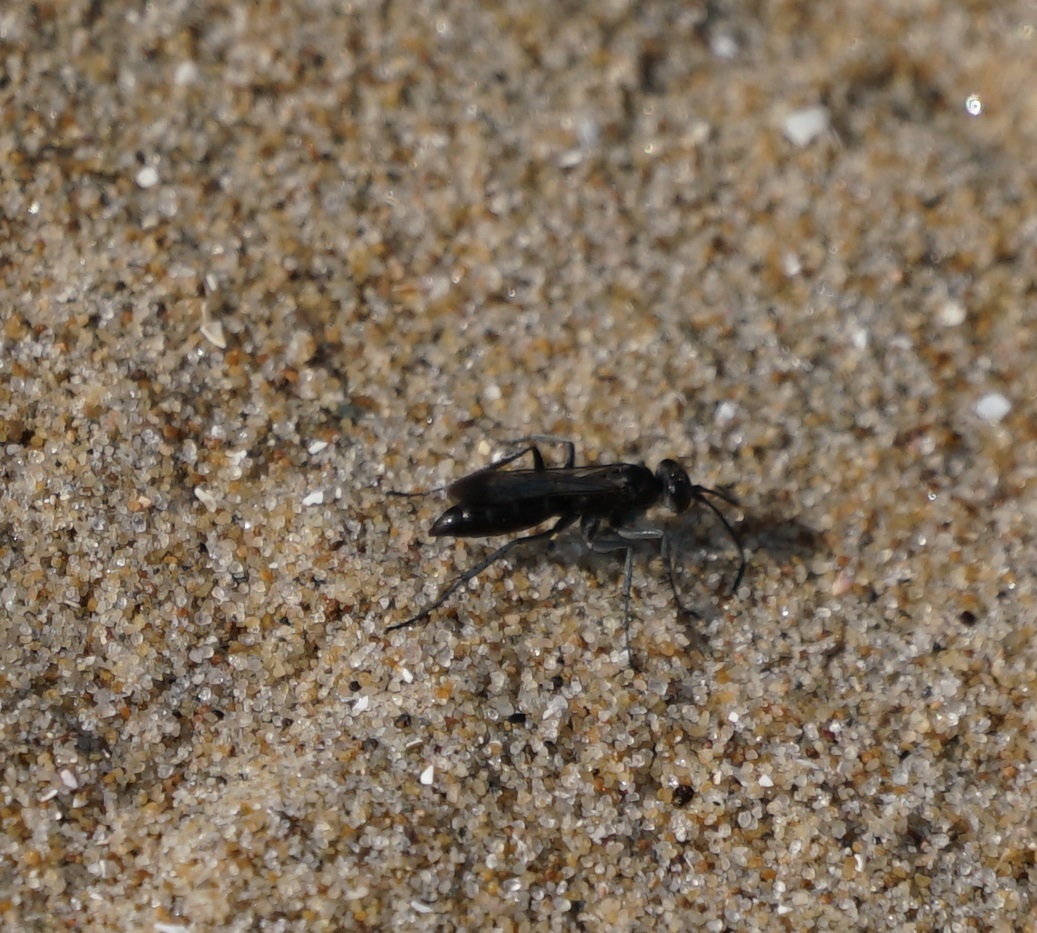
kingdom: Animalia
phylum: Arthropoda
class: Insecta
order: Hymenoptera
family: Pompilidae
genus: Pompilus
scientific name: Pompilus cinereus
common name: Leaden spider wasp
